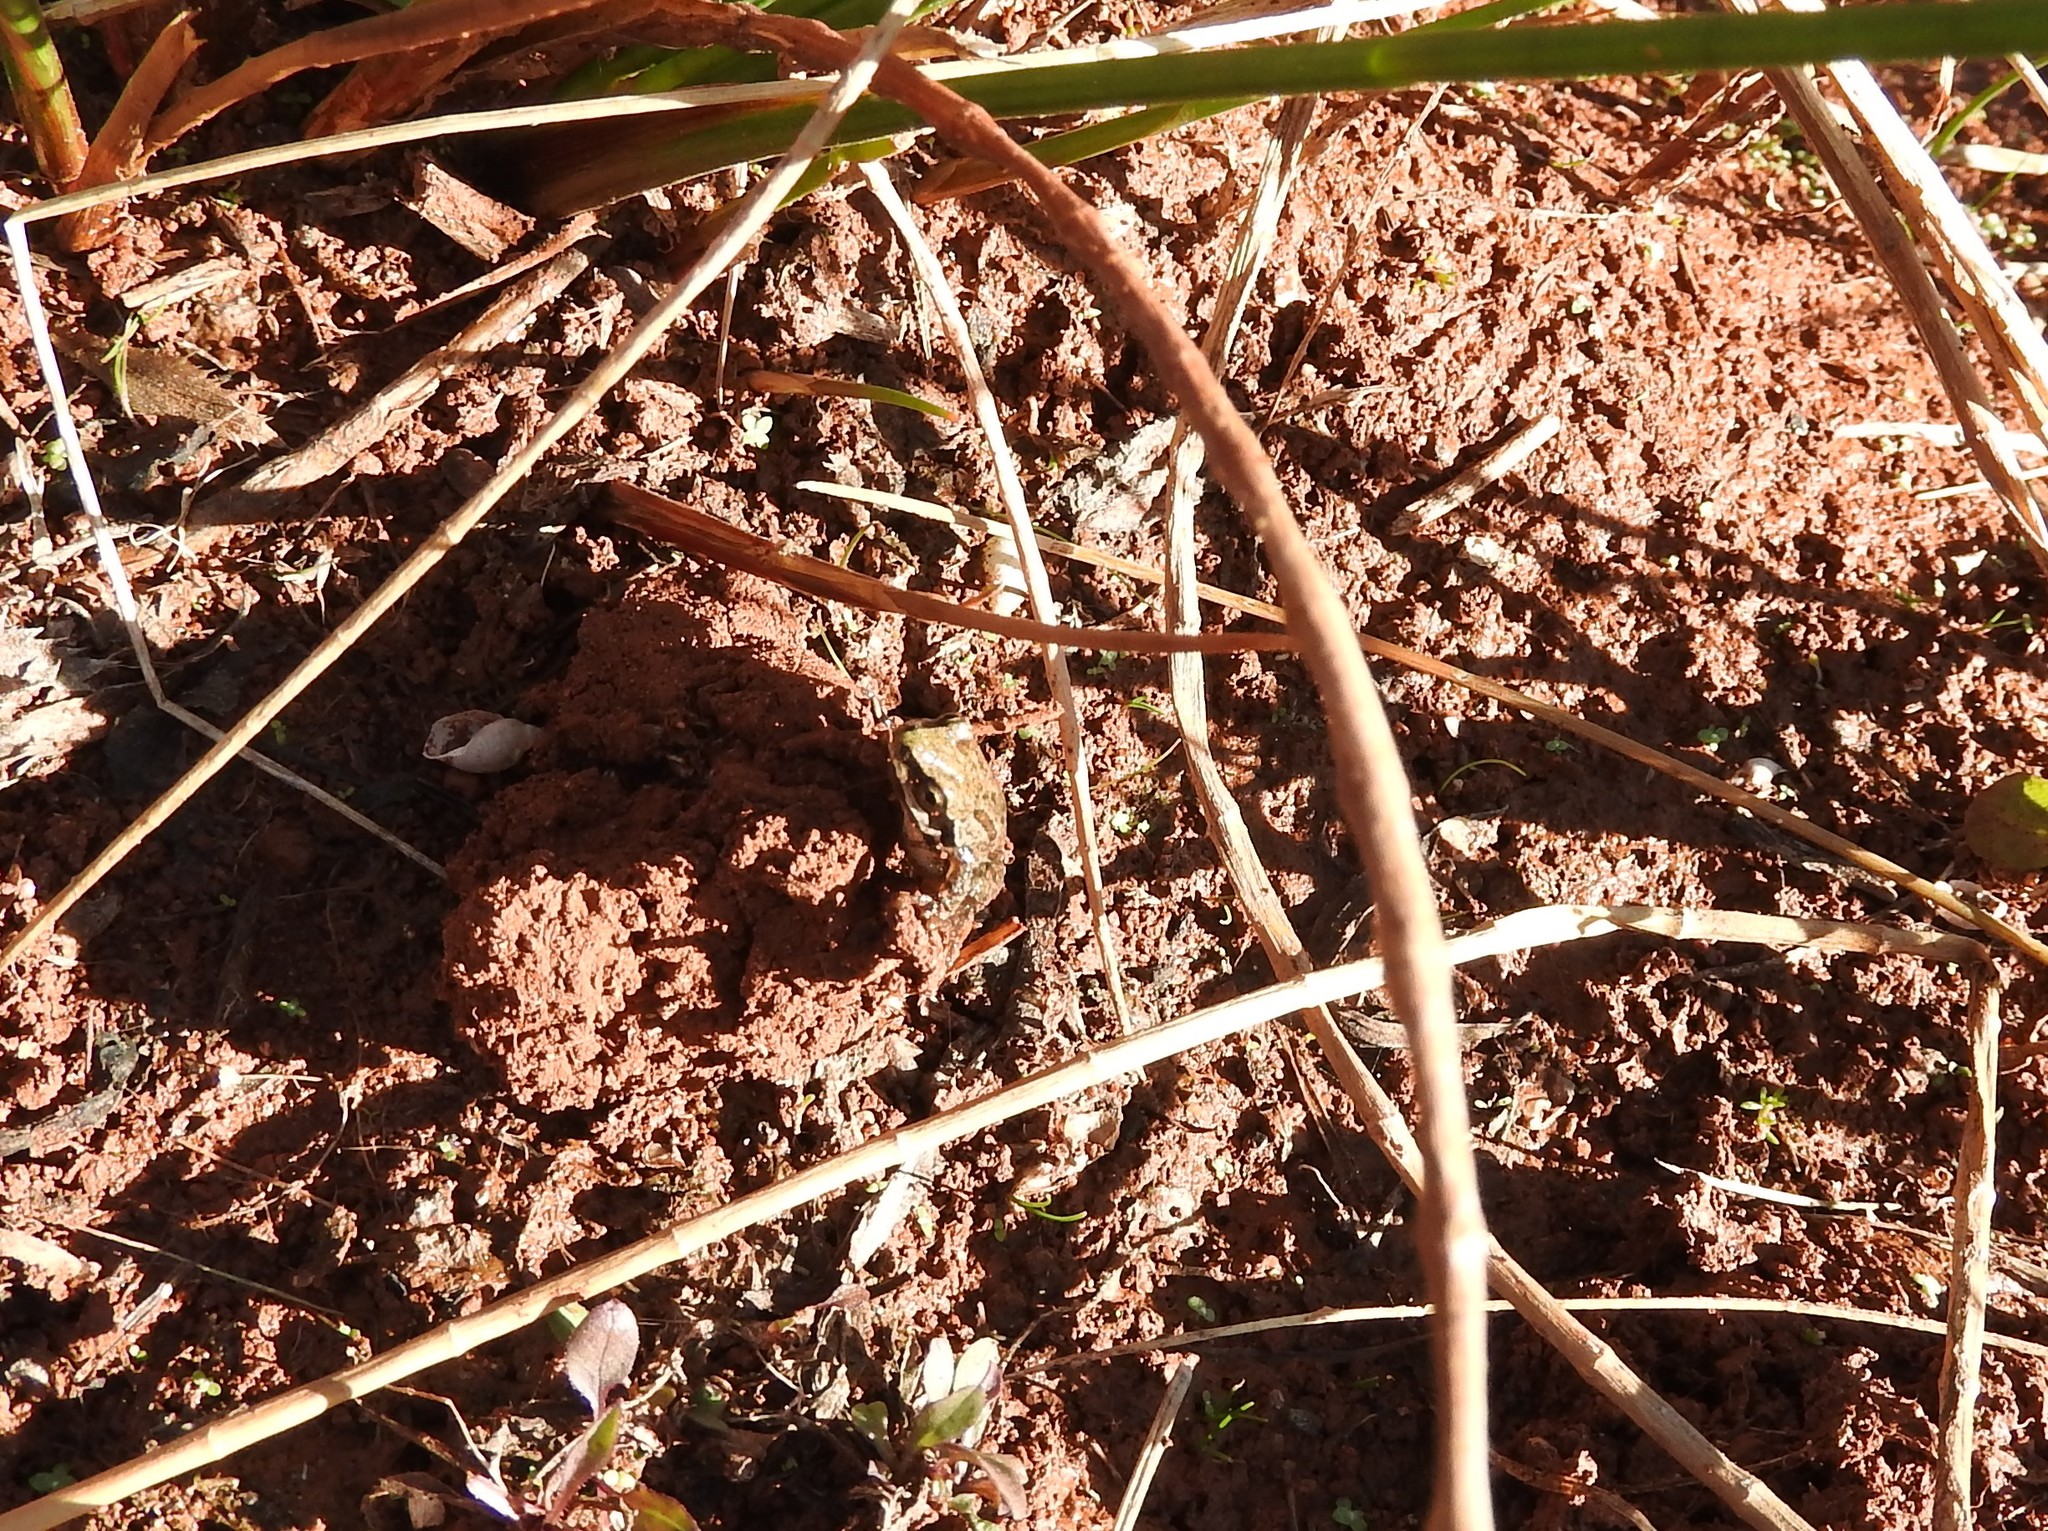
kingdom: Animalia
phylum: Chordata
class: Amphibia
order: Anura
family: Hylidae
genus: Dryophytes
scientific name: Dryophytes eximius
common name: Mountain treefrog
